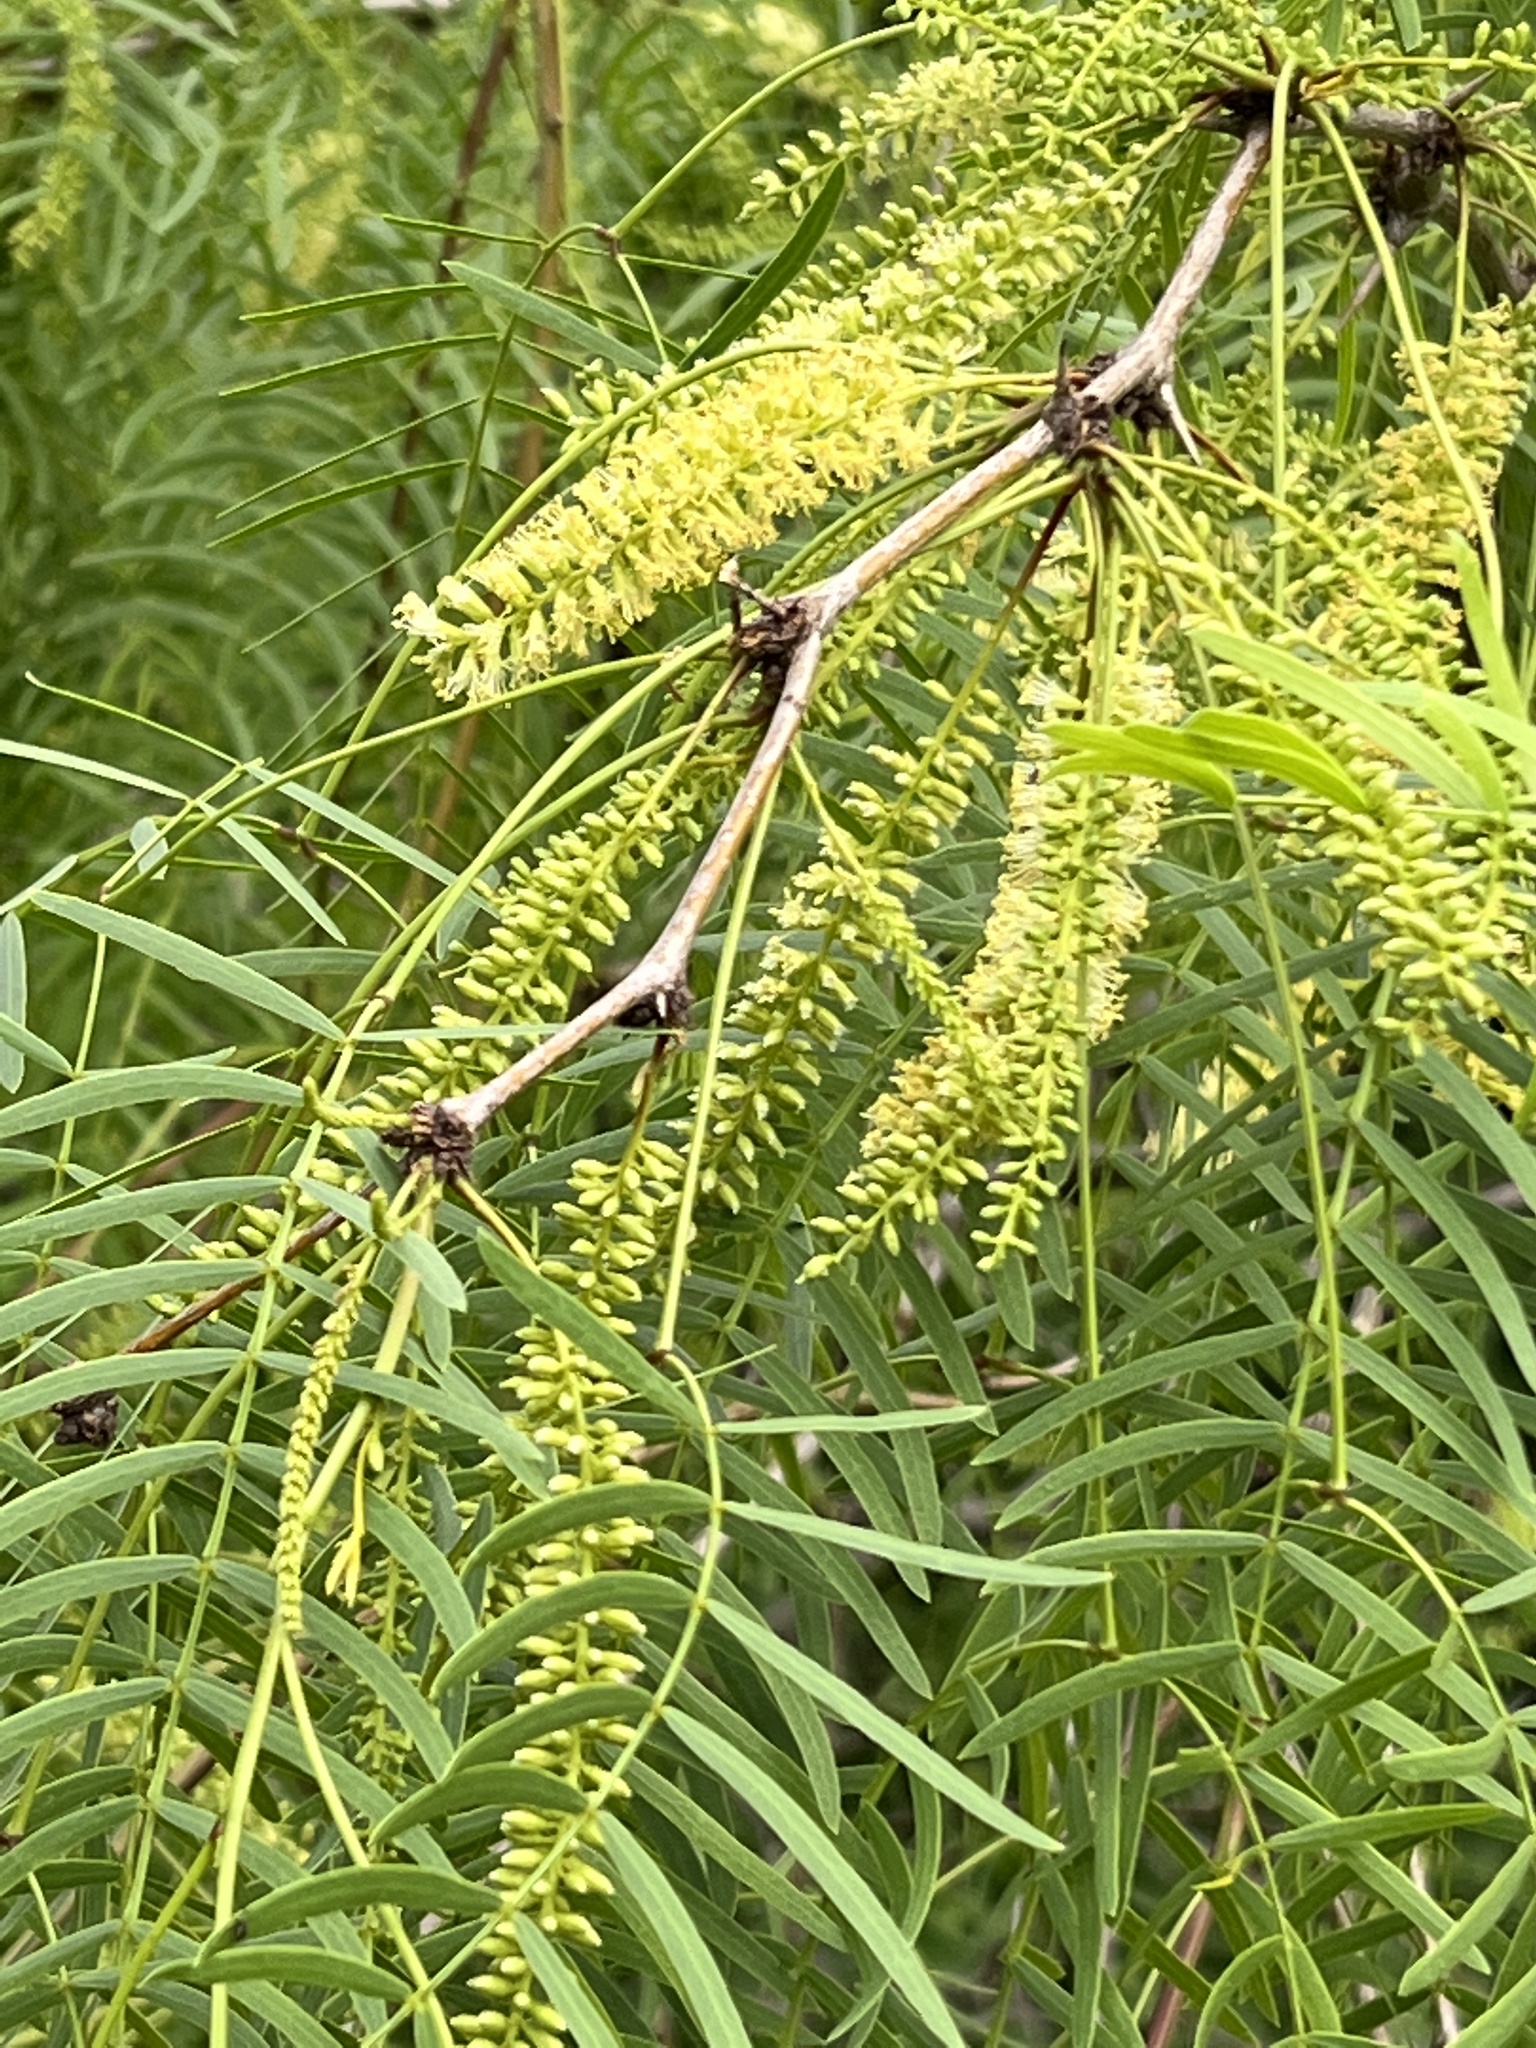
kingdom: Plantae
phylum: Tracheophyta
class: Magnoliopsida
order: Fabales
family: Fabaceae
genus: Prosopis
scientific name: Prosopis glandulosa
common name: Honey mesquite
